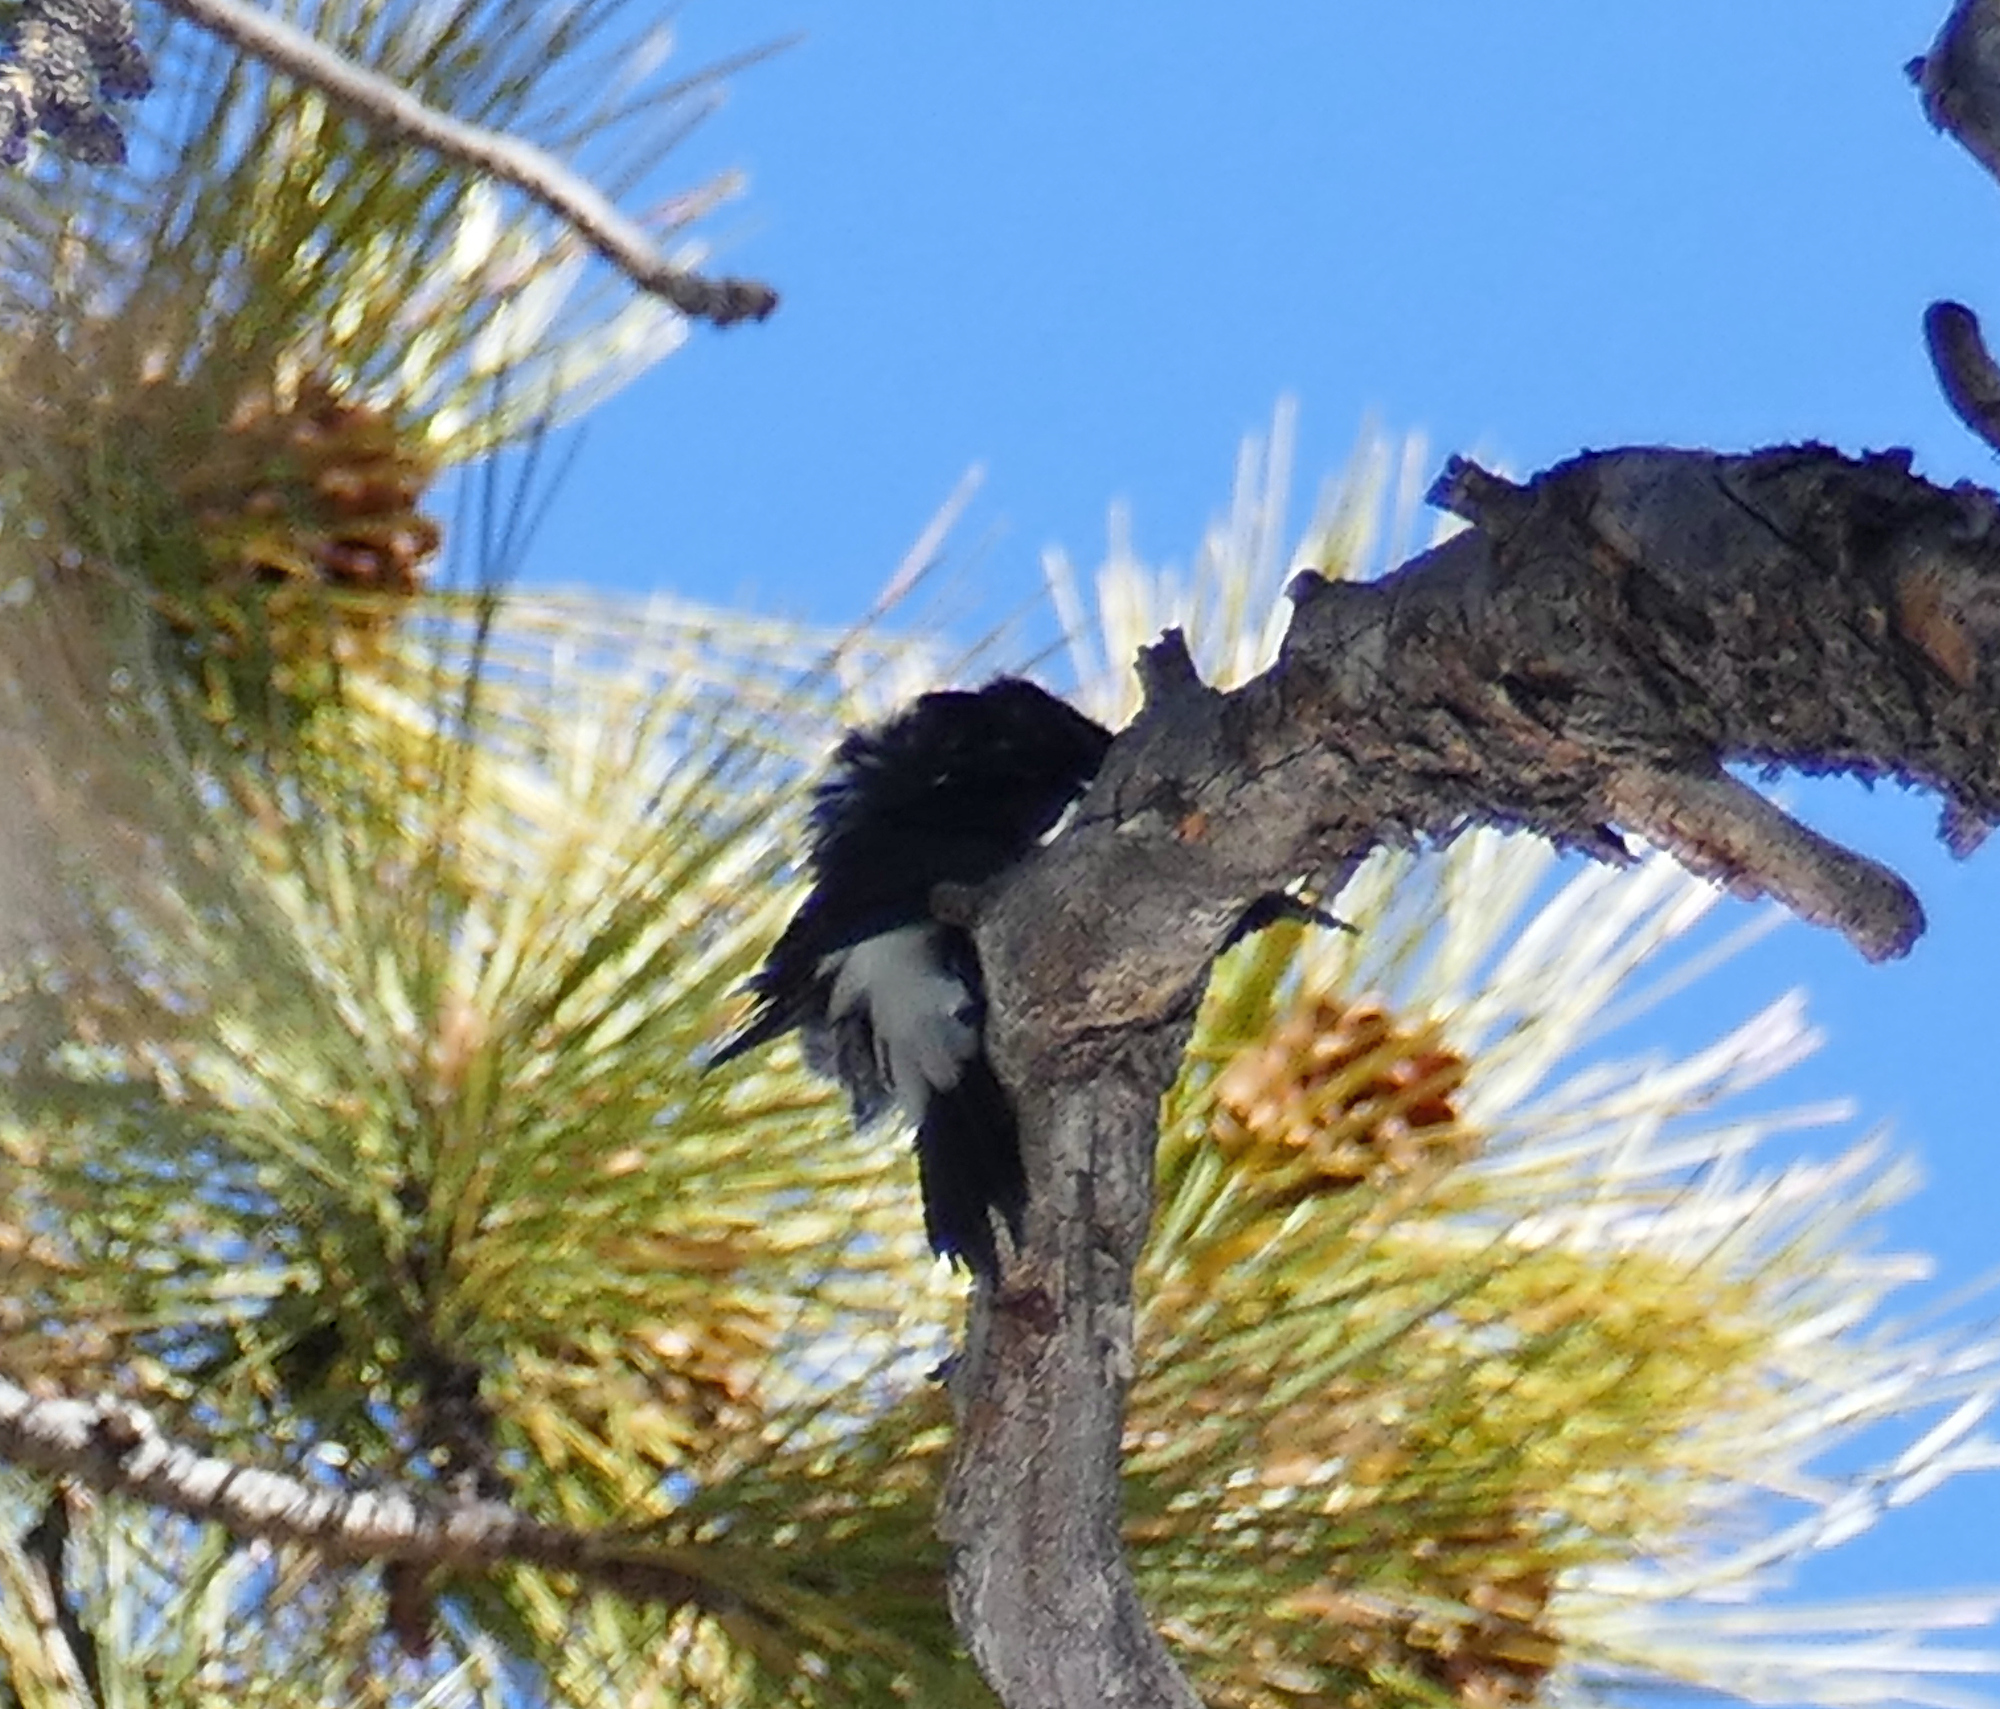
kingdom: Animalia
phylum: Chordata
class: Aves
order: Piciformes
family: Picidae
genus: Sphyrapicus
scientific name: Sphyrapicus thyroideus
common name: Williamson's sapsucker
